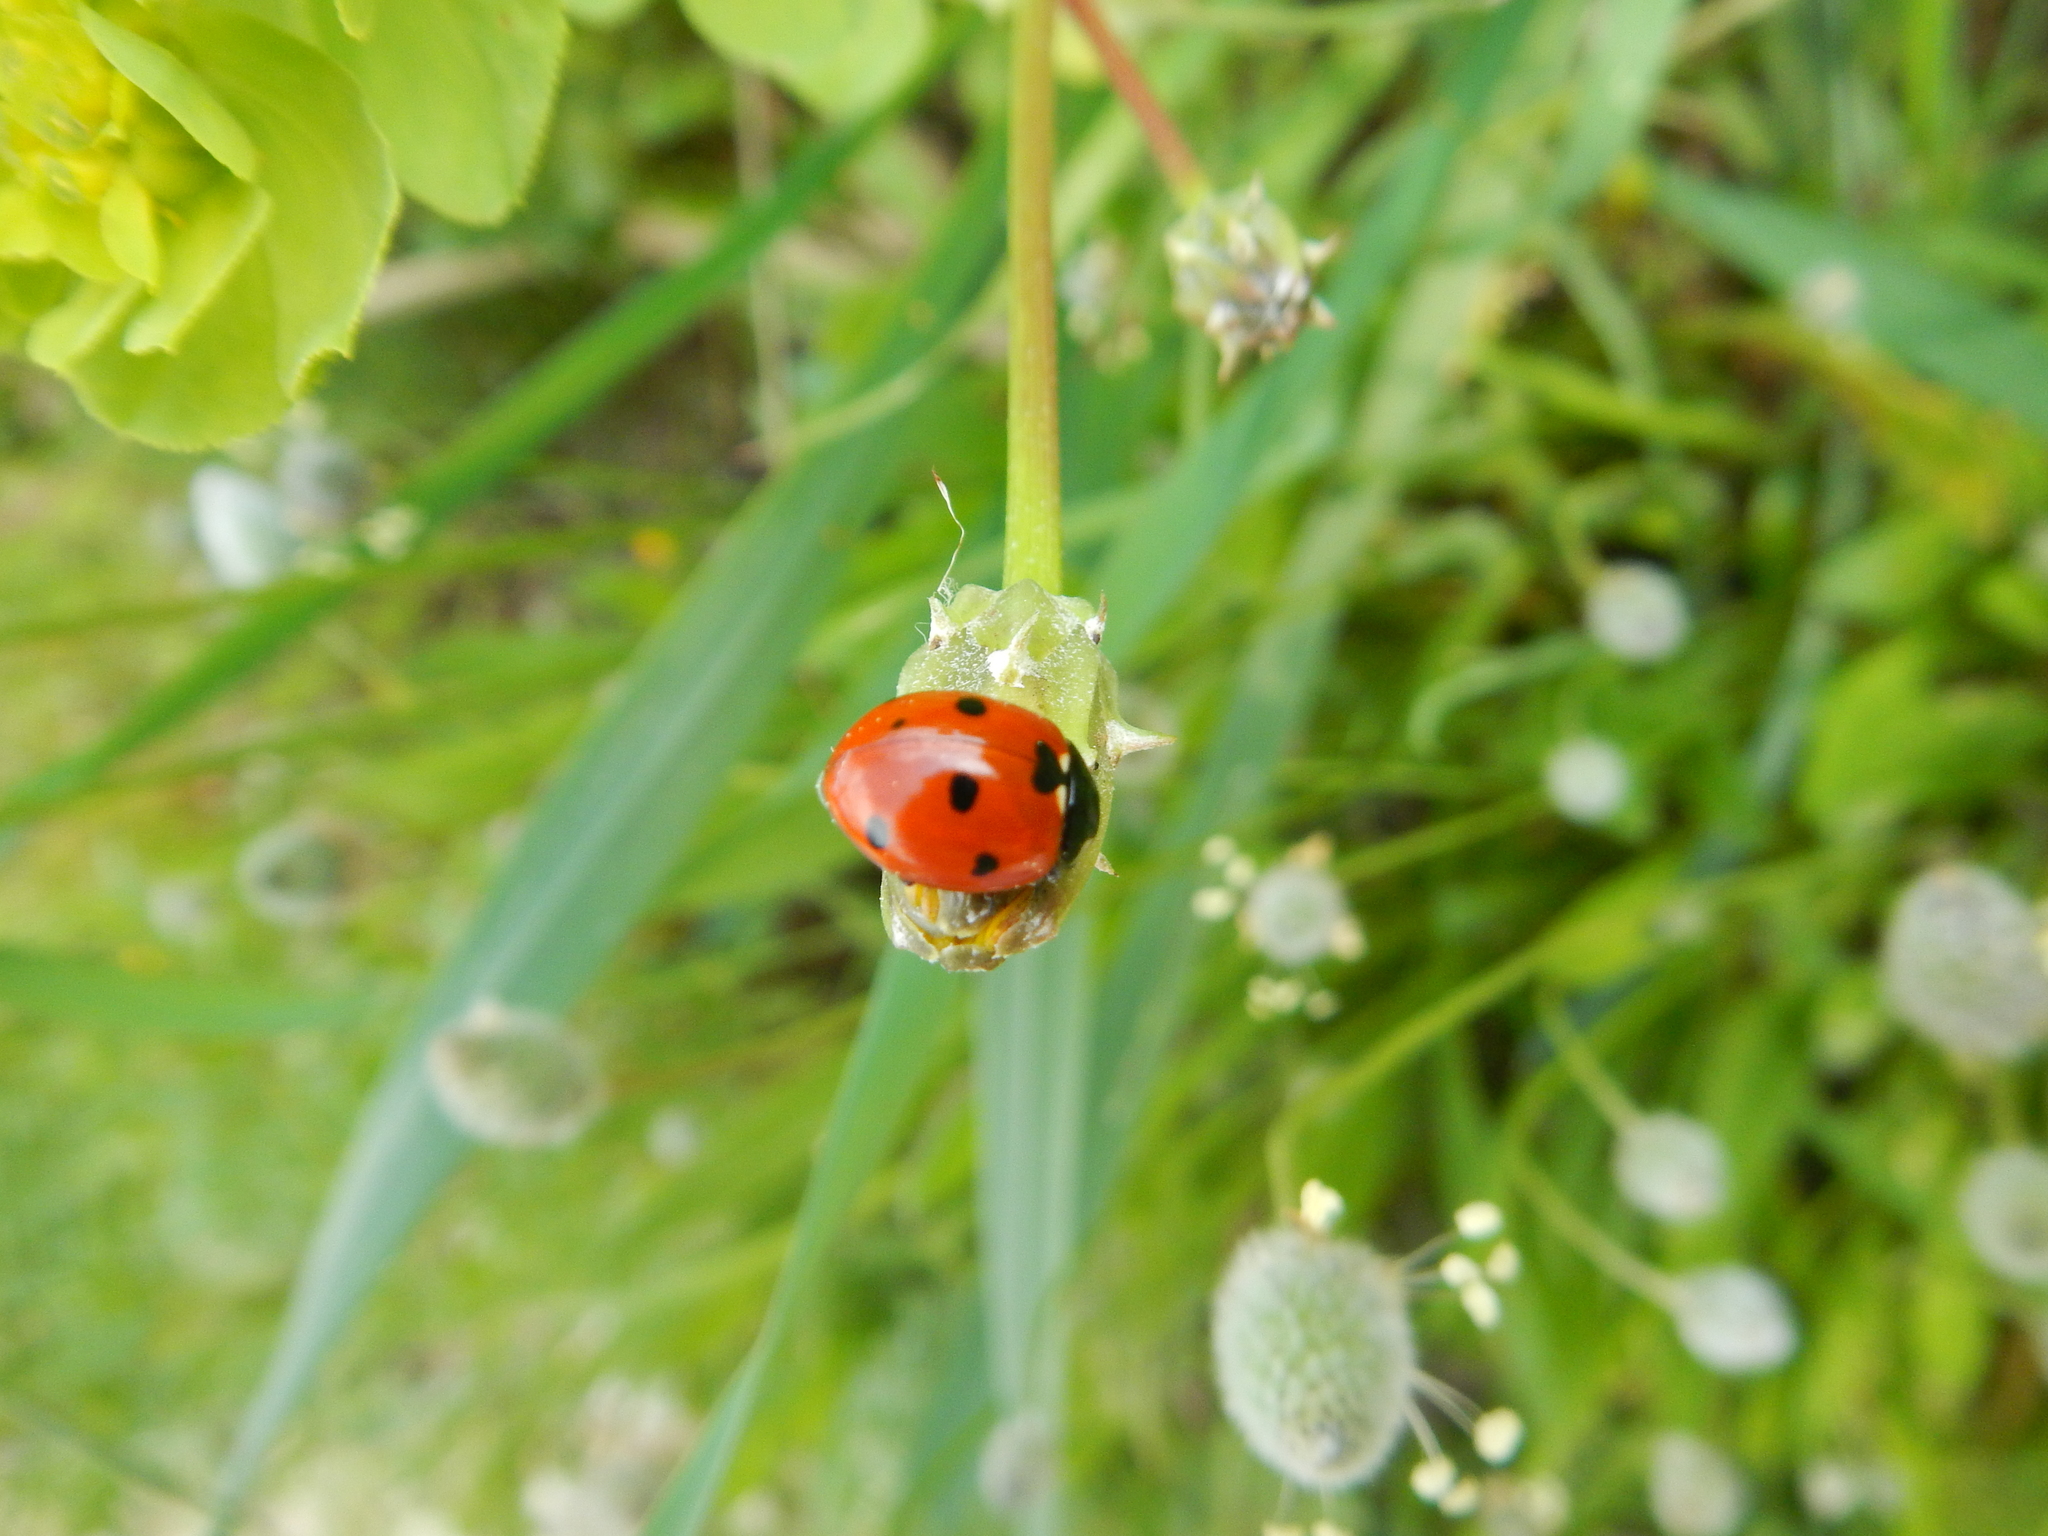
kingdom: Animalia
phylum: Arthropoda
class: Insecta
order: Coleoptera
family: Coccinellidae
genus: Coccinella
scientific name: Coccinella septempunctata
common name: Sevenspotted lady beetle
